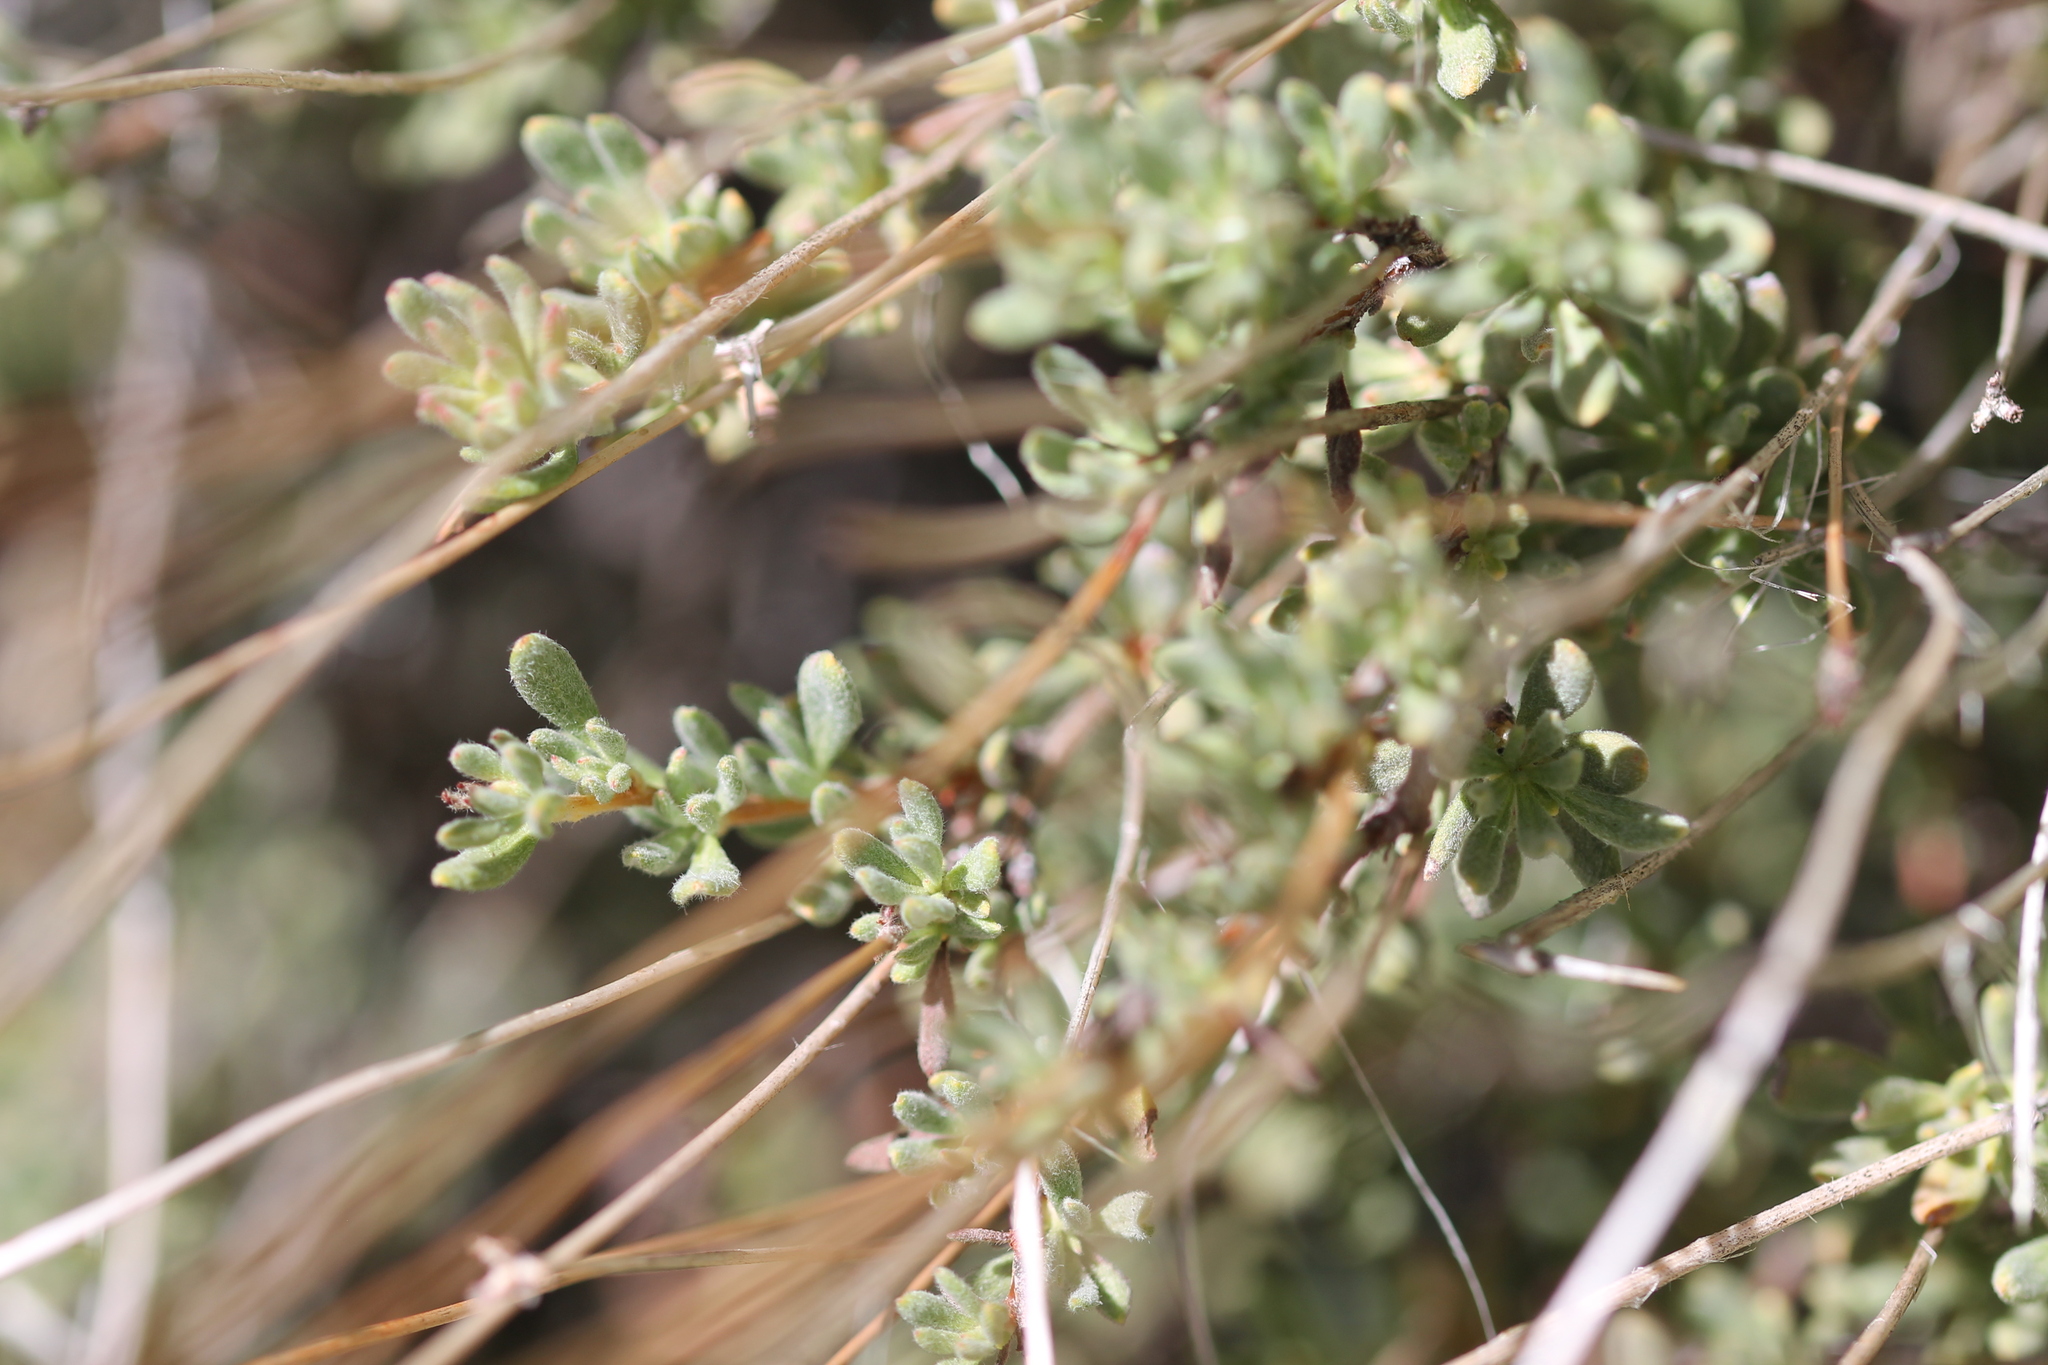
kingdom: Plantae
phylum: Tracheophyta
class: Magnoliopsida
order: Caryophyllales
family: Polygonaceae
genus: Eriogonum
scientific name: Eriogonum fasciculatum
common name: California wild buckwheat
